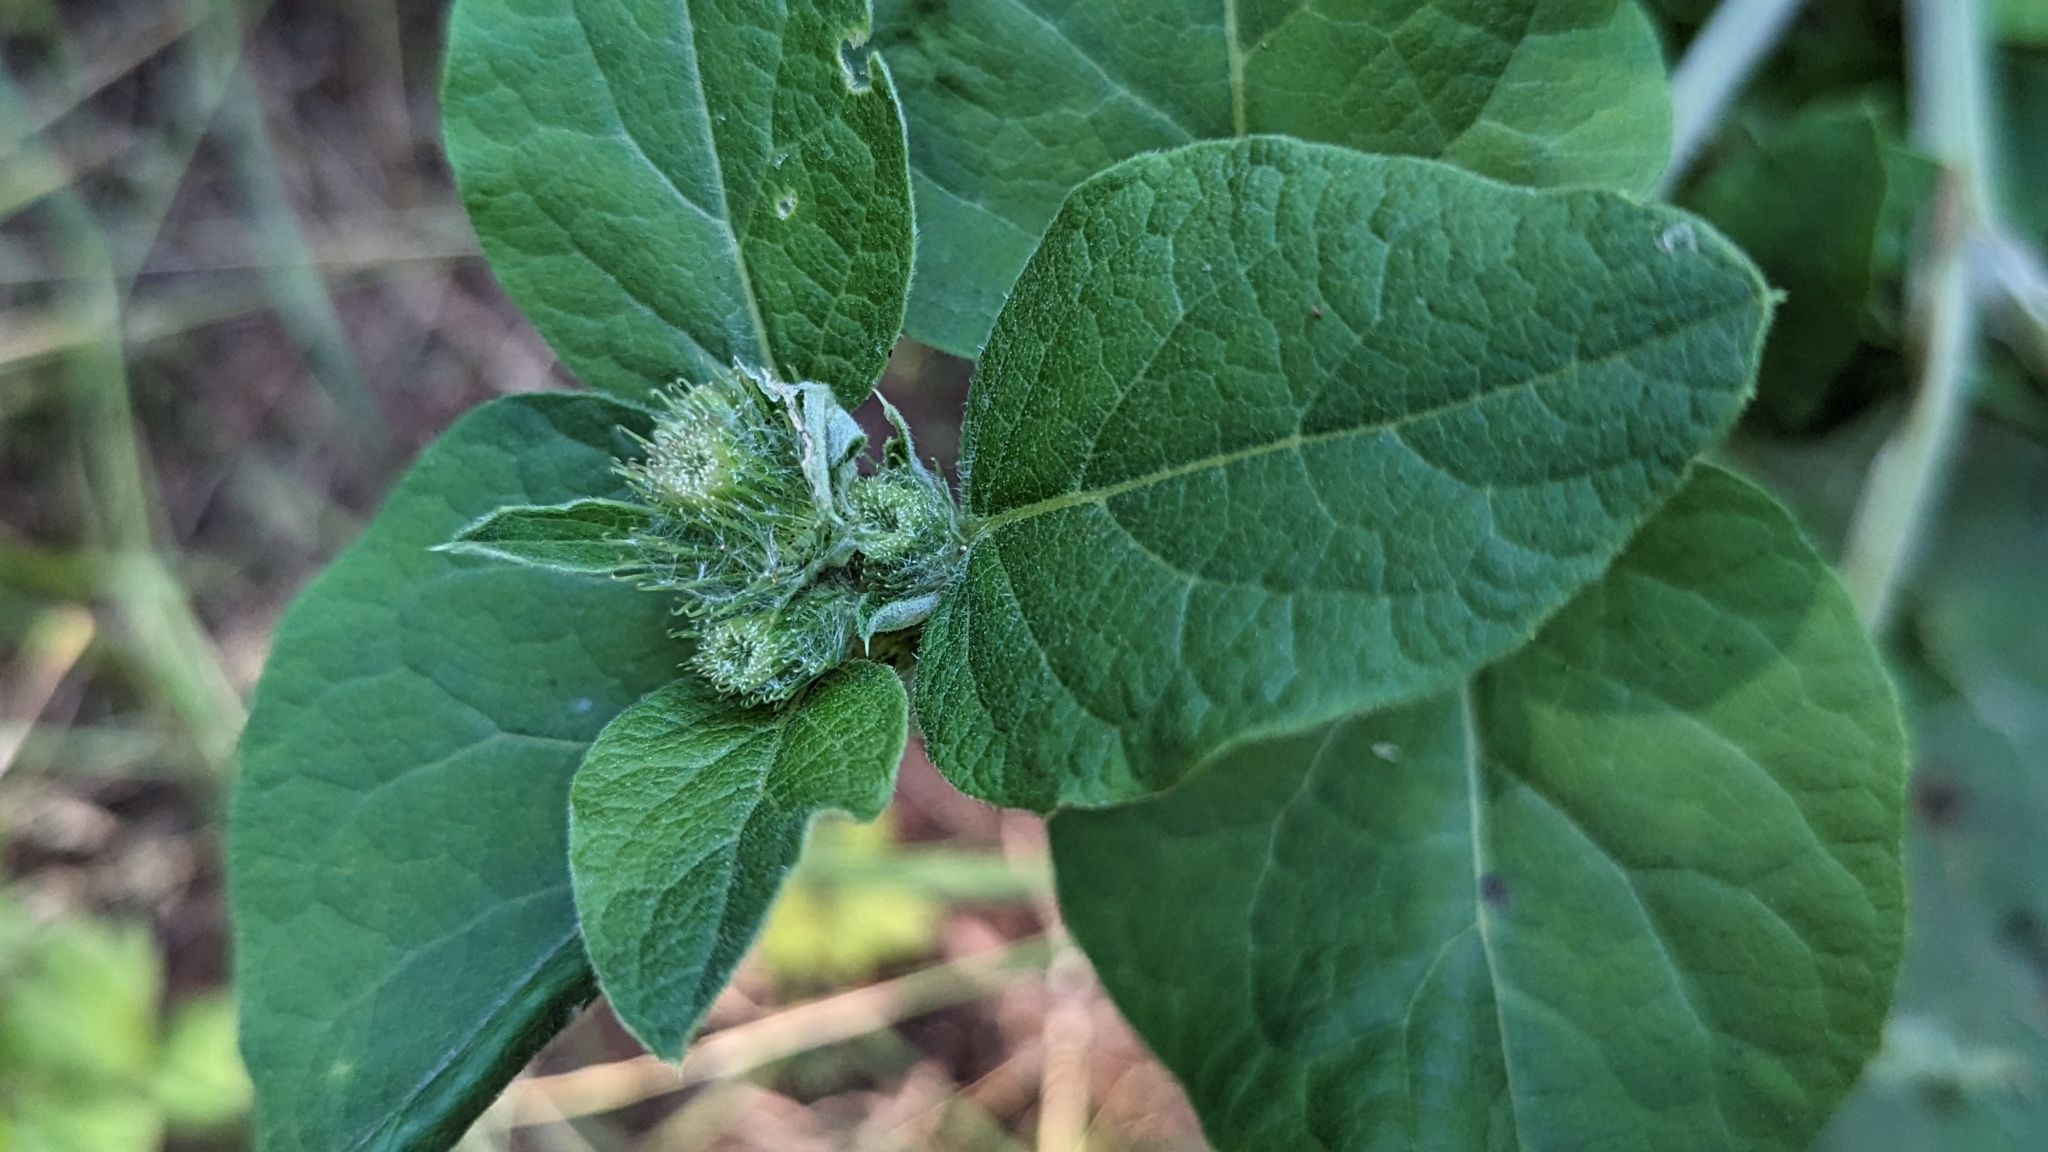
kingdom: Plantae
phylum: Tracheophyta
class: Magnoliopsida
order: Asterales
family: Asteraceae
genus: Arctium
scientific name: Arctium minus
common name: Lesser burdock
